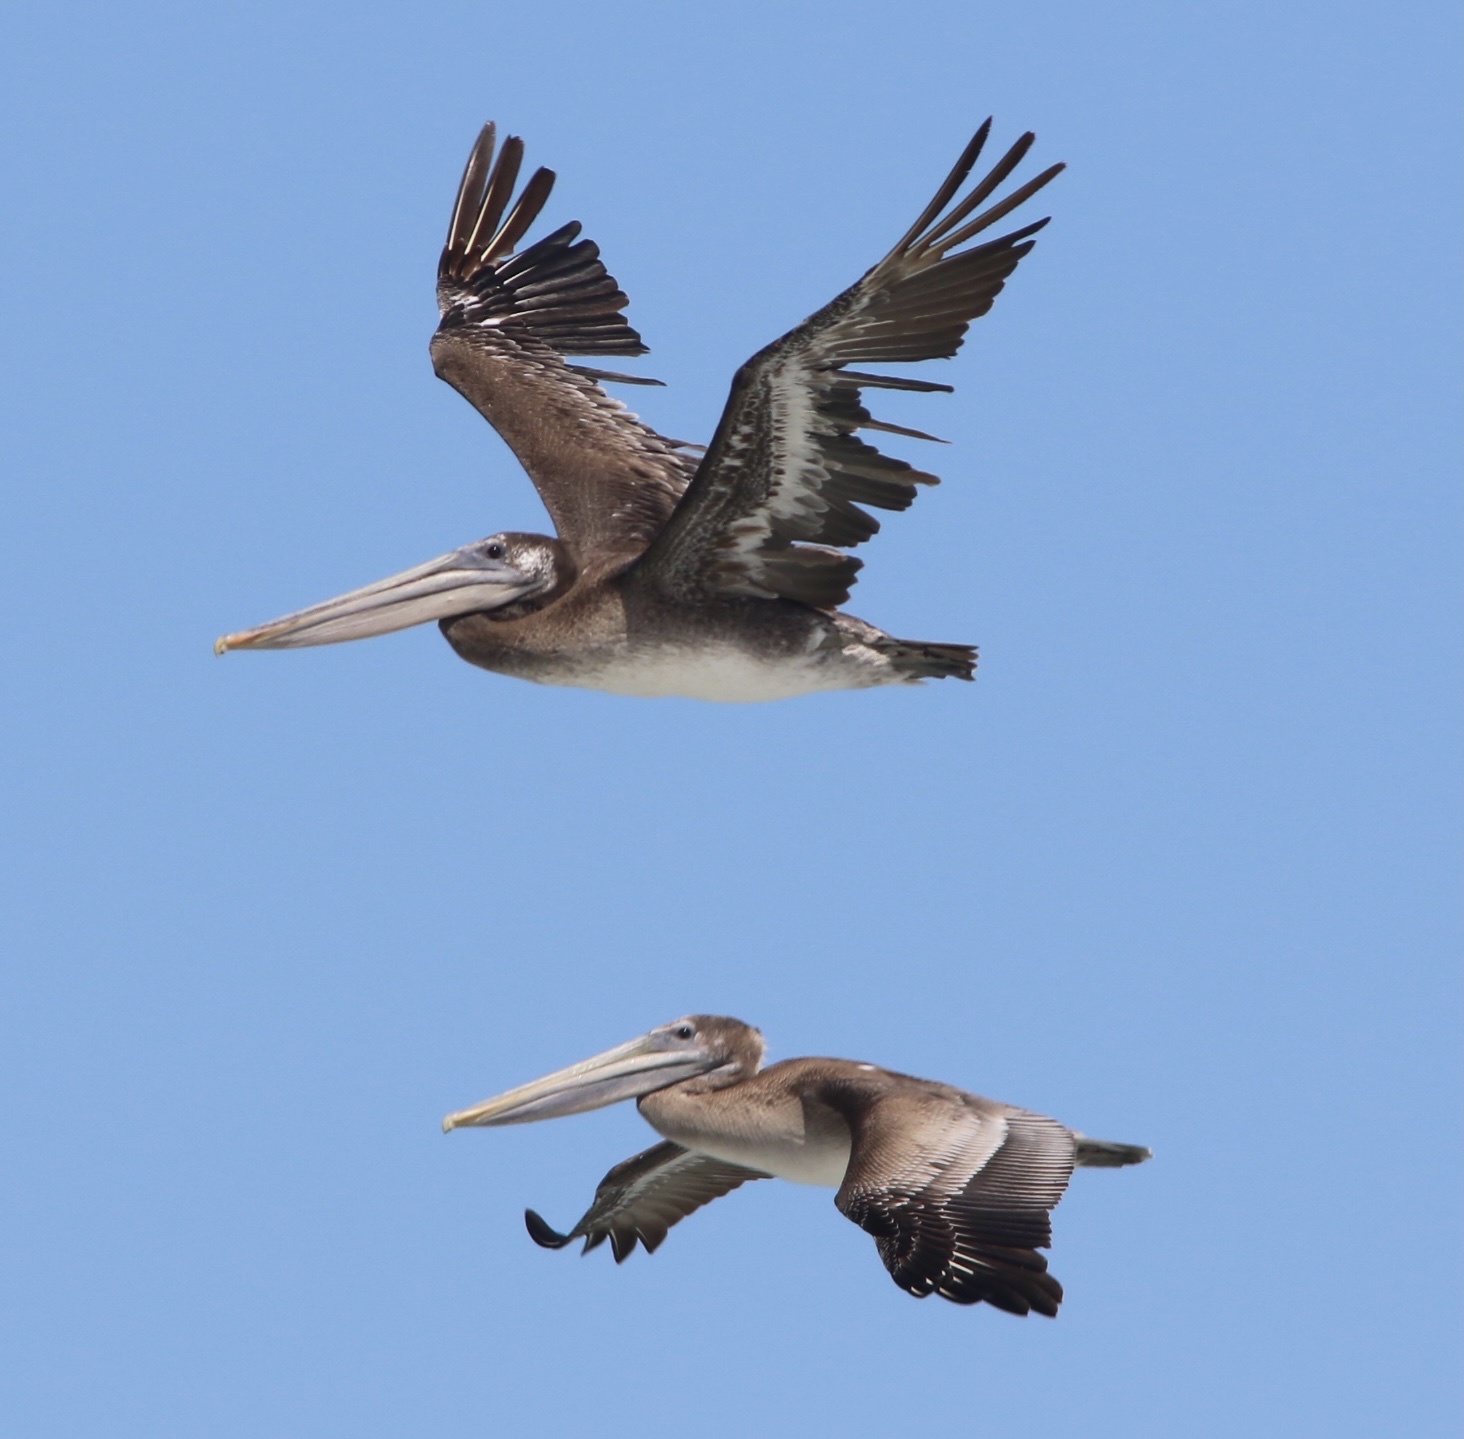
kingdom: Animalia
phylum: Chordata
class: Aves
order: Pelecaniformes
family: Pelecanidae
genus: Pelecanus
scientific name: Pelecanus occidentalis
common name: Brown pelican
